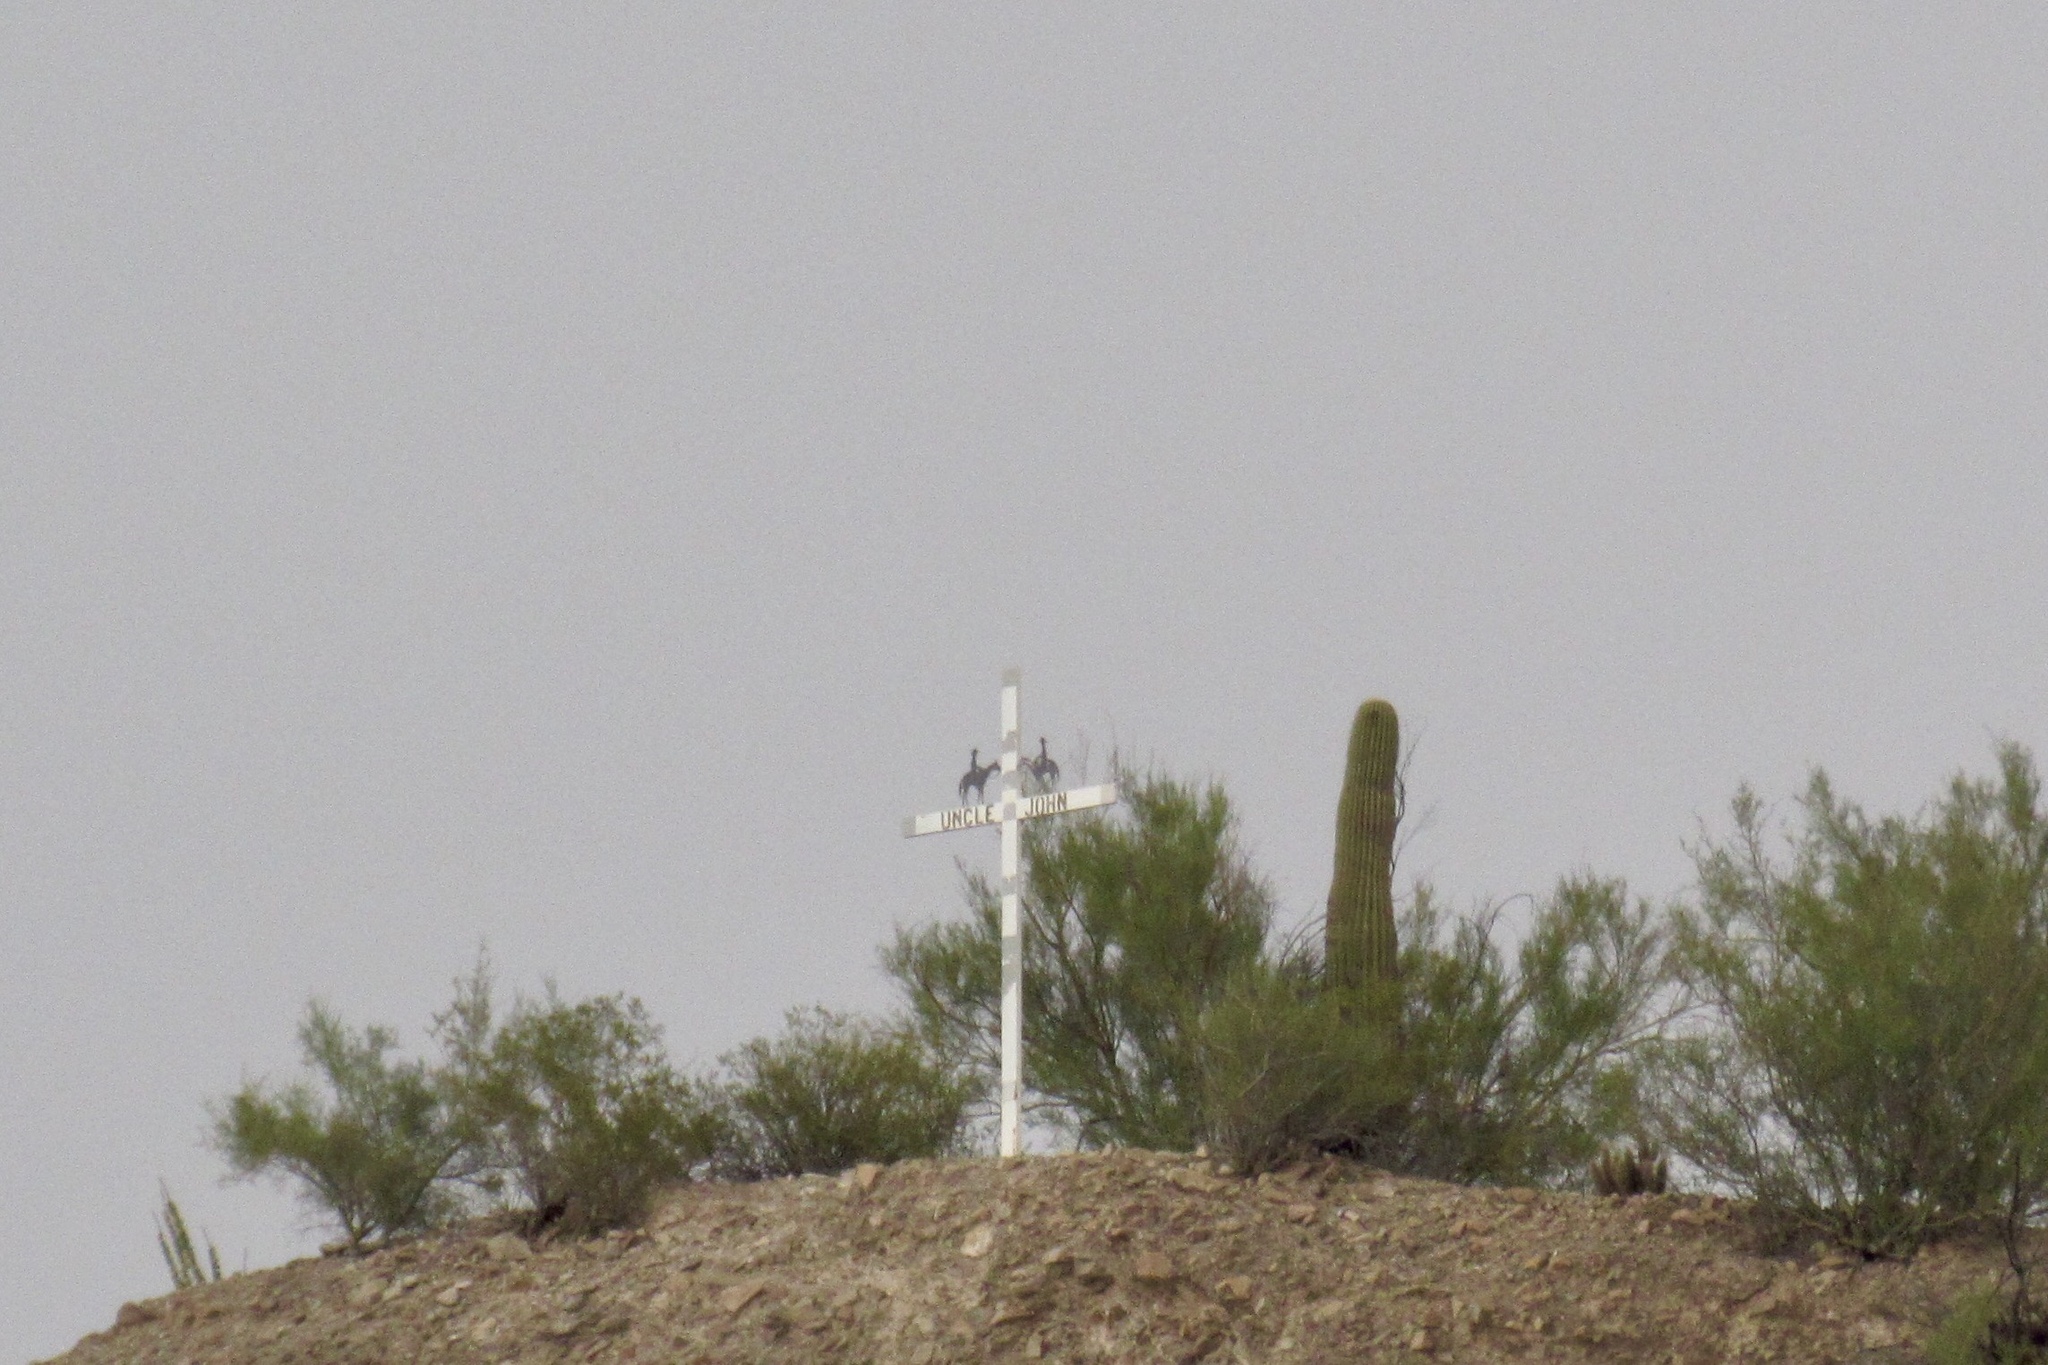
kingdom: Plantae
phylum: Tracheophyta
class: Magnoliopsida
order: Caryophyllales
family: Cactaceae
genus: Carnegiea
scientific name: Carnegiea gigantea
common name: Saguaro
